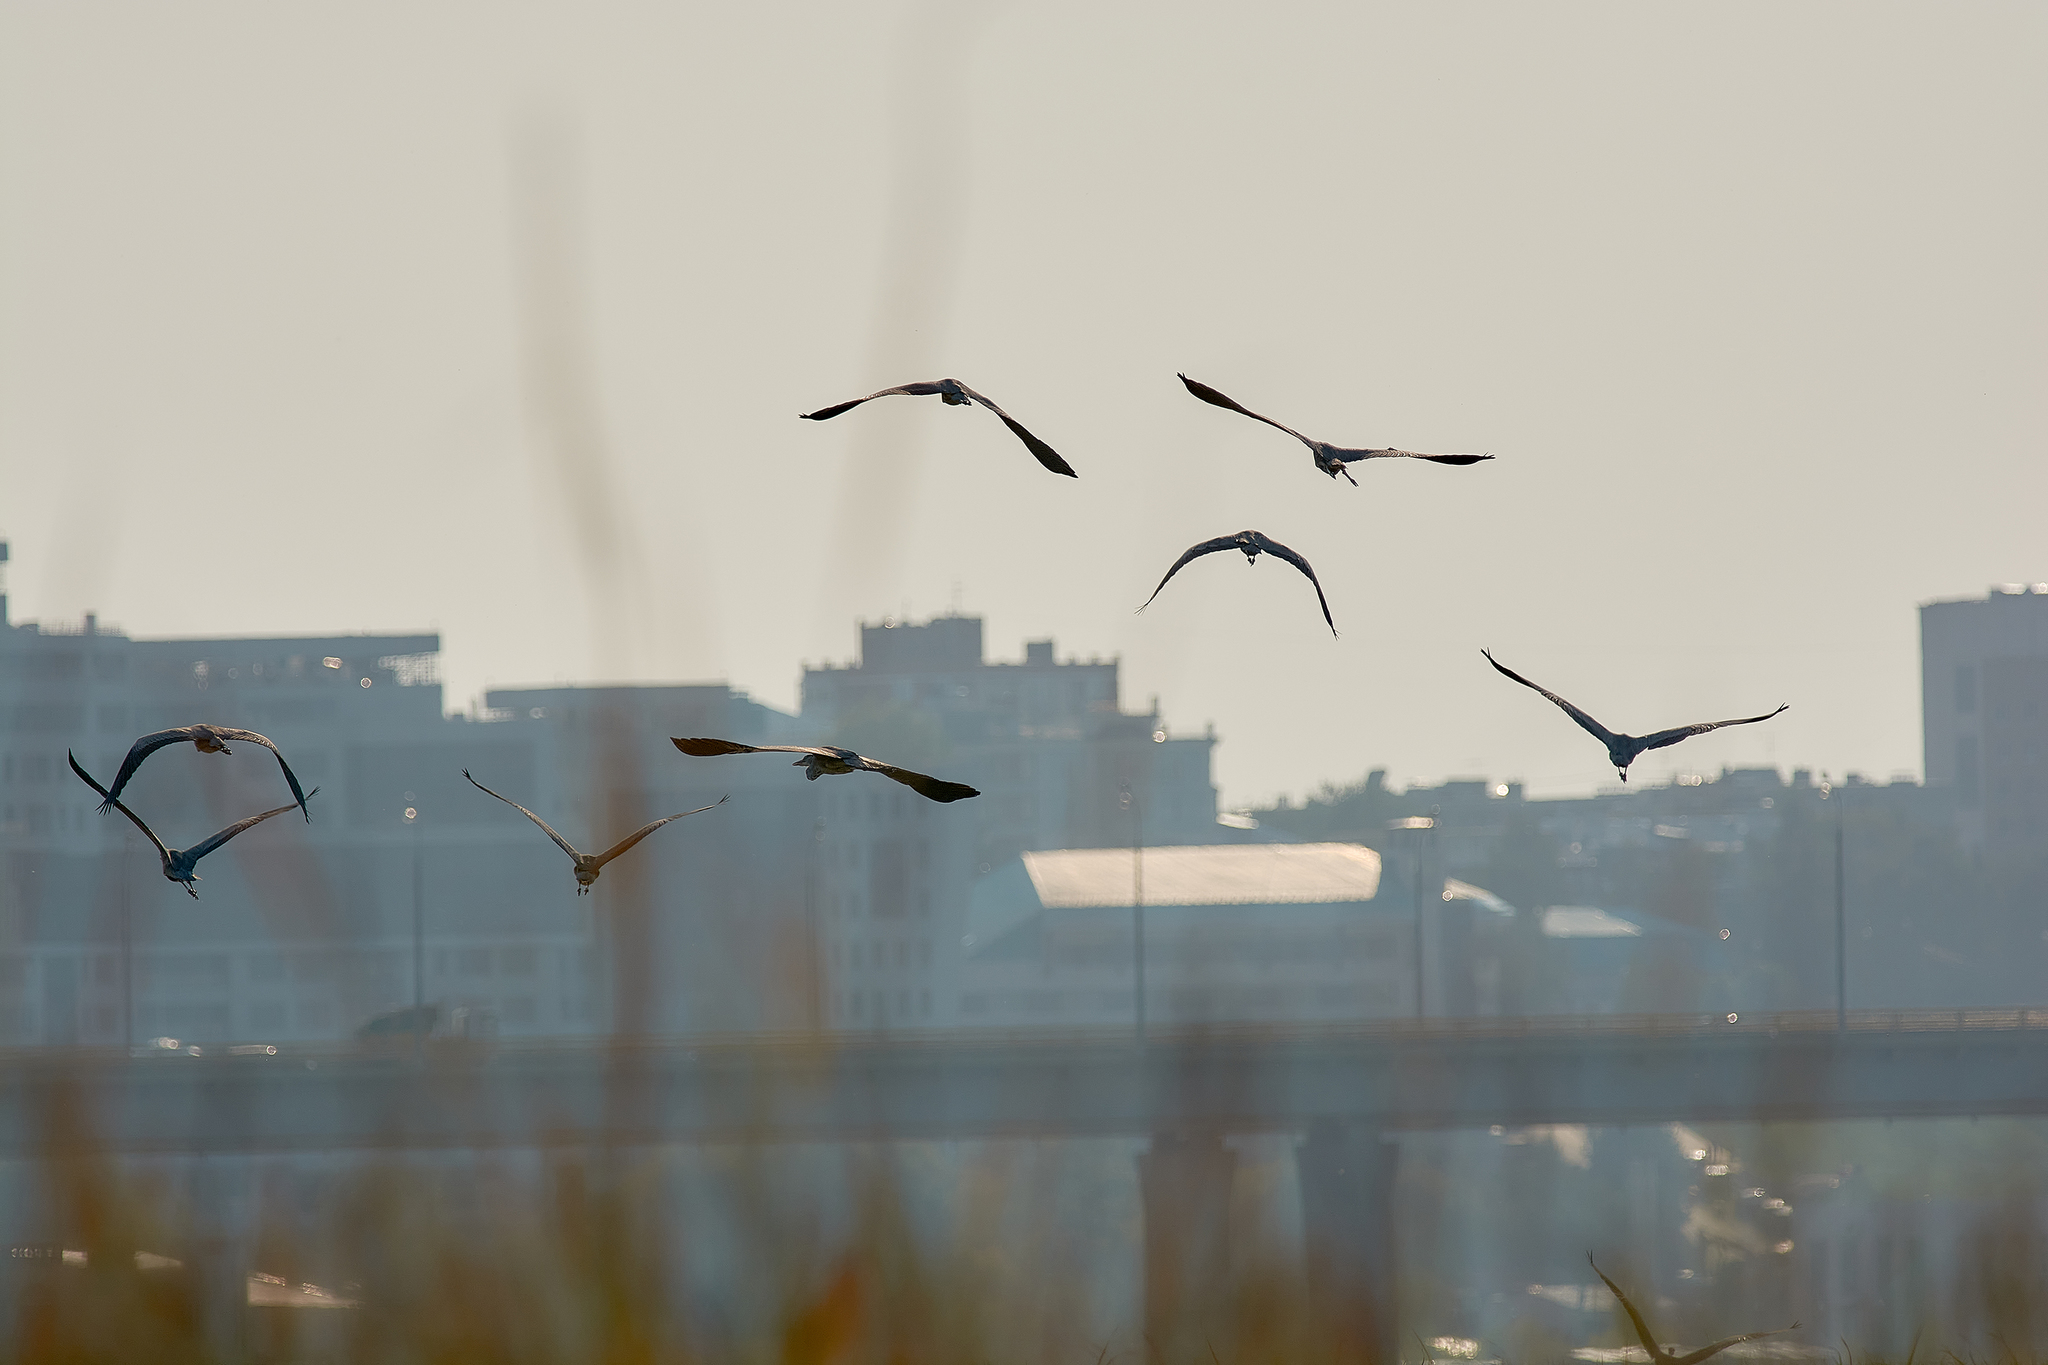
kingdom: Animalia
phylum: Chordata
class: Aves
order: Pelecaniformes
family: Ardeidae
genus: Ardea
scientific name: Ardea cinerea
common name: Grey heron
